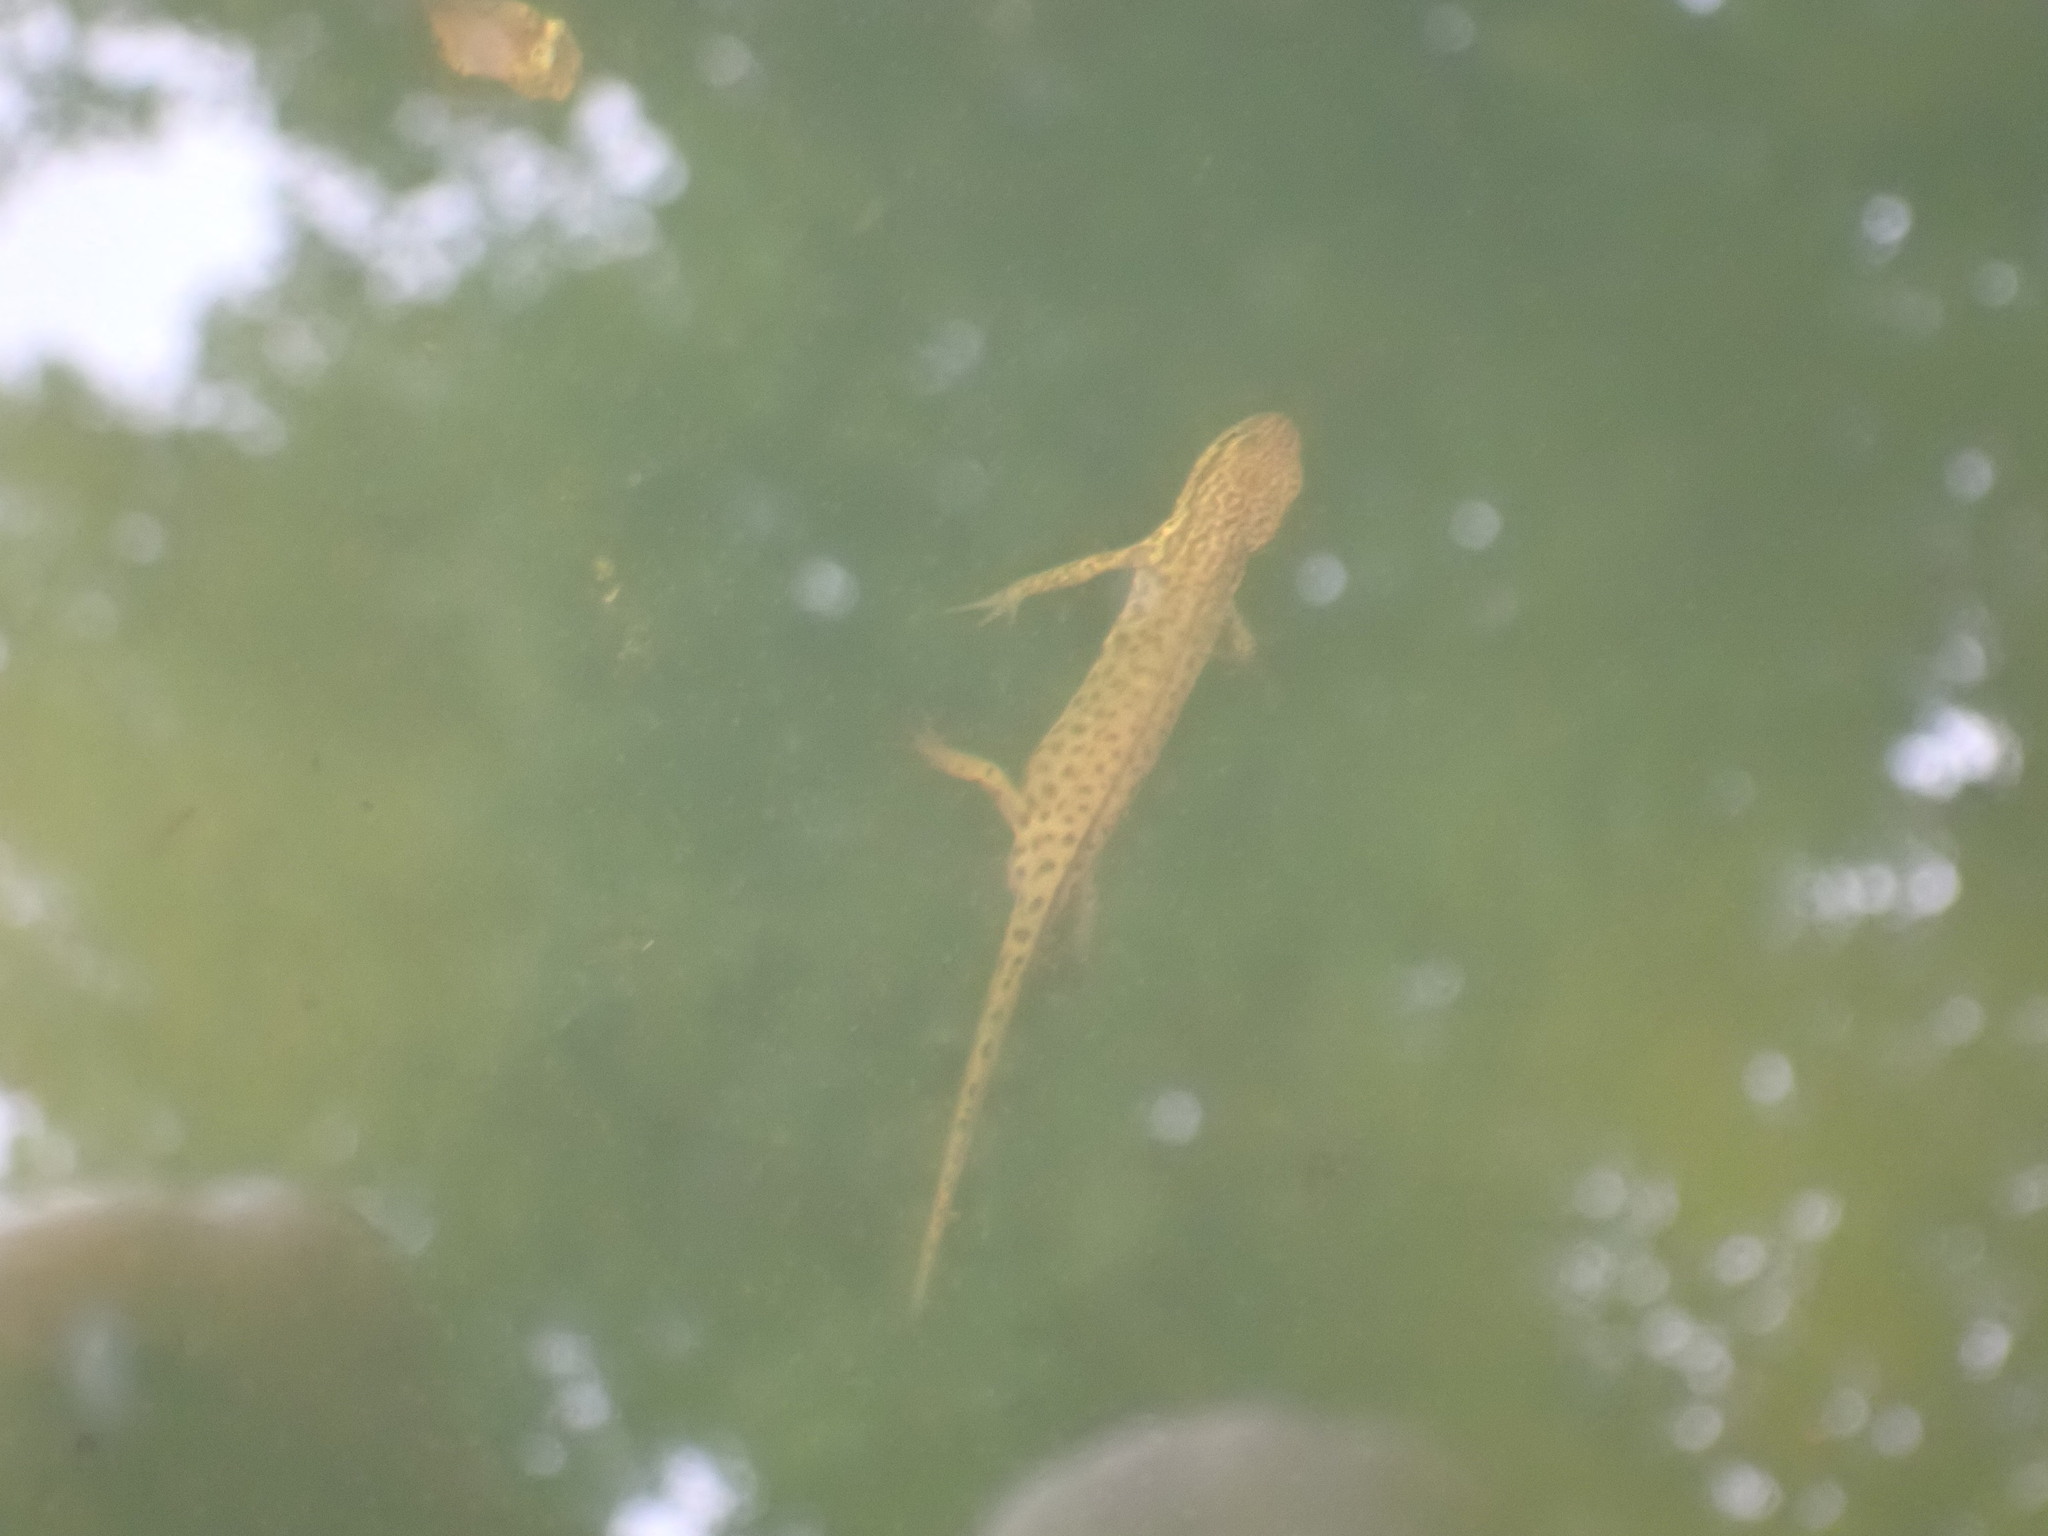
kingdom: Animalia
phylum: Chordata
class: Amphibia
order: Caudata
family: Salamandridae
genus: Lissotriton
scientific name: Lissotriton helveticus
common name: Palmate newt
